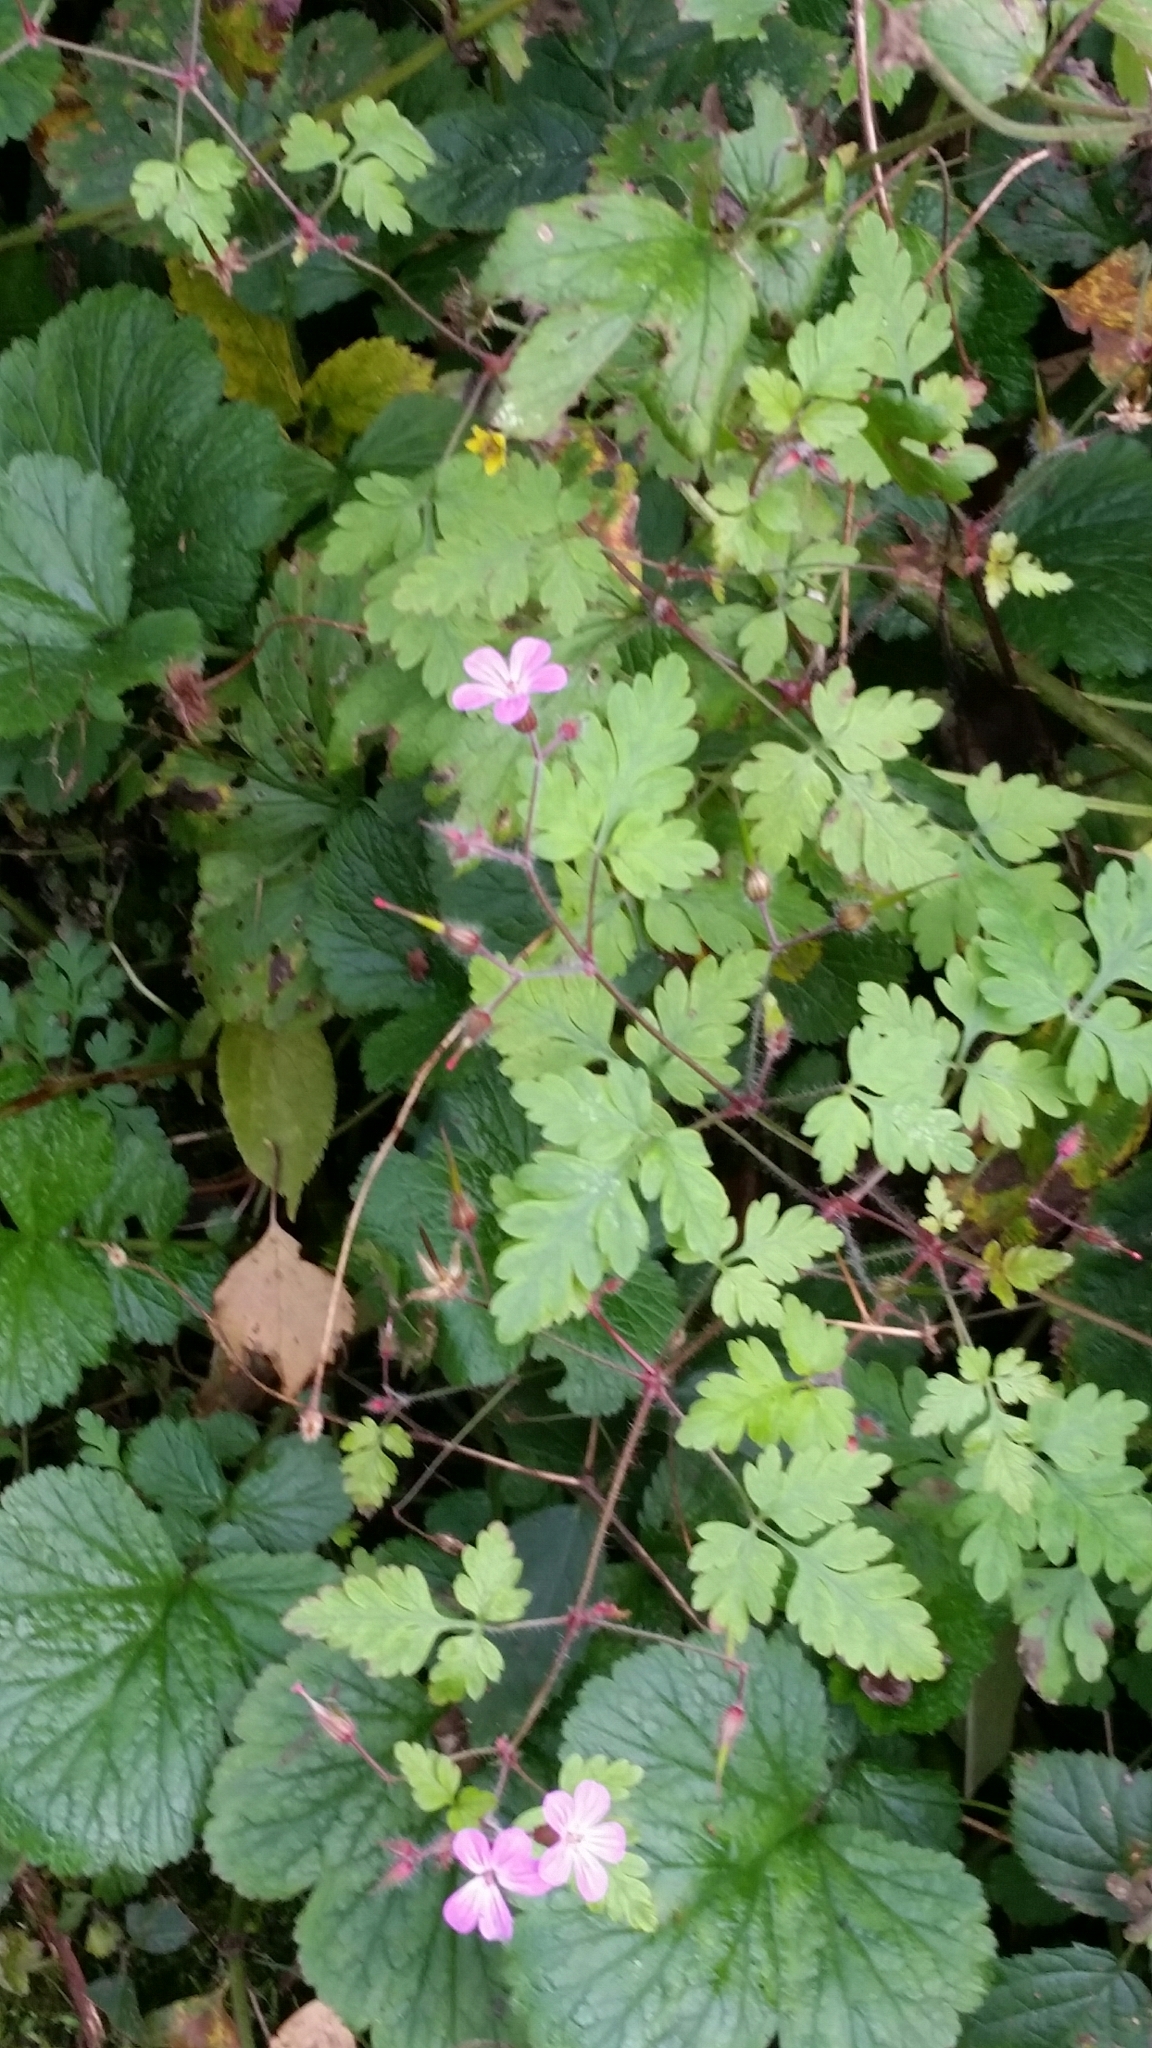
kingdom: Plantae
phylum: Tracheophyta
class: Magnoliopsida
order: Geraniales
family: Geraniaceae
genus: Geranium
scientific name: Geranium robertianum
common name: Herb-robert
